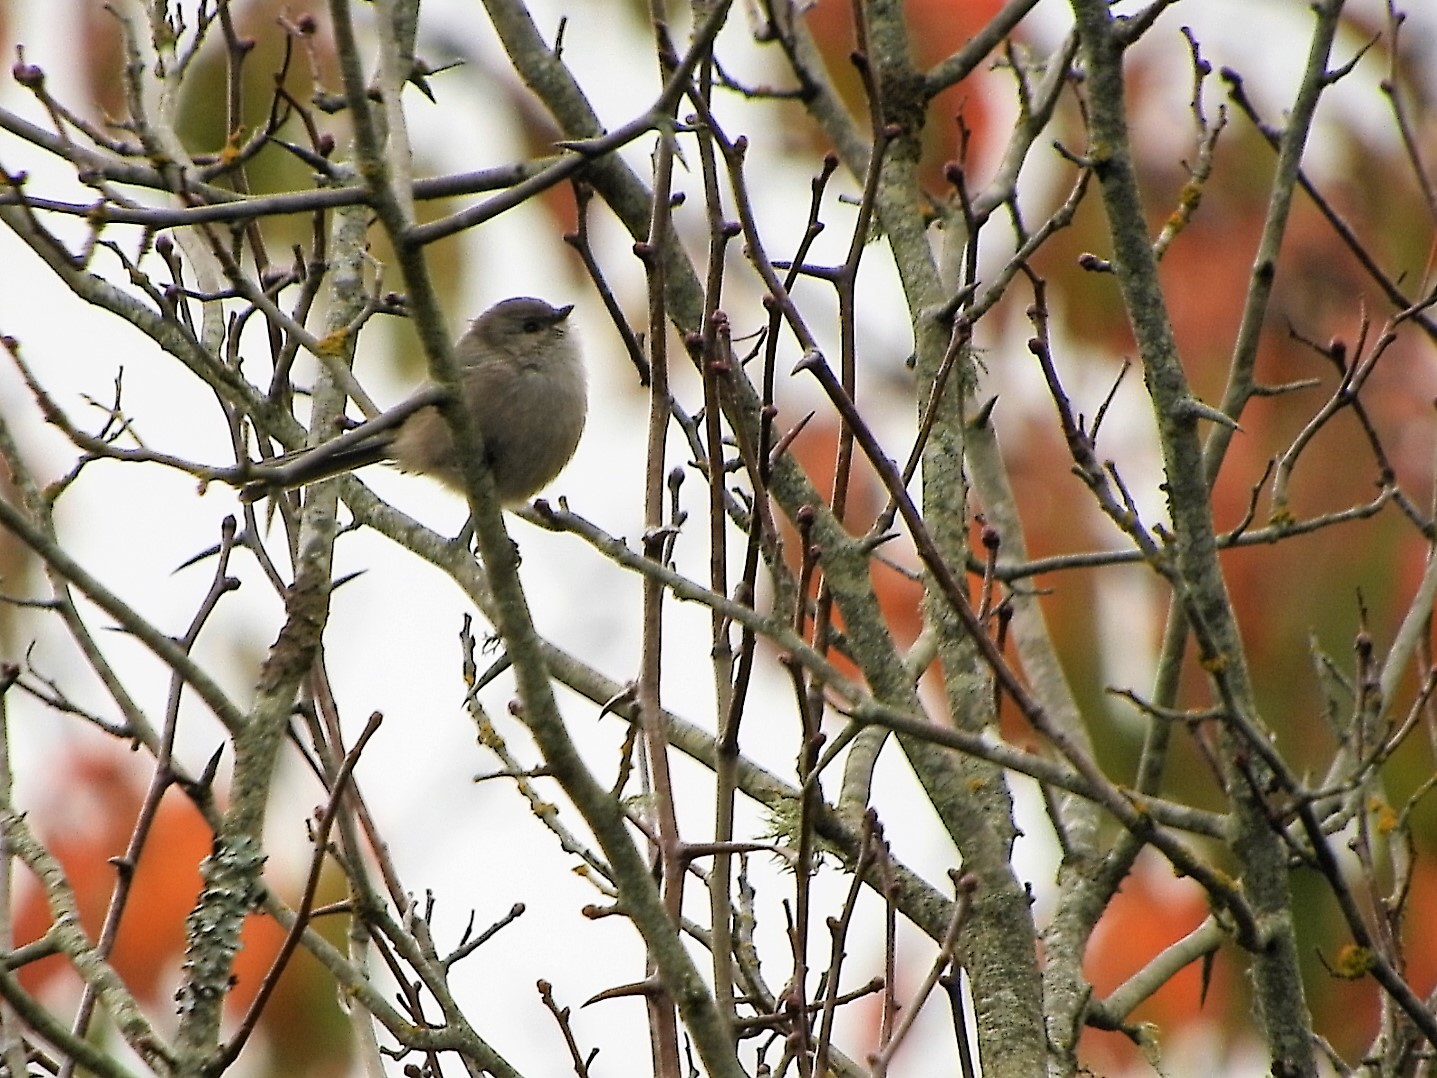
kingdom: Animalia
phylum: Chordata
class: Aves
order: Passeriformes
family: Aegithalidae
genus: Psaltriparus
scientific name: Psaltriparus minimus
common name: American bushtit
